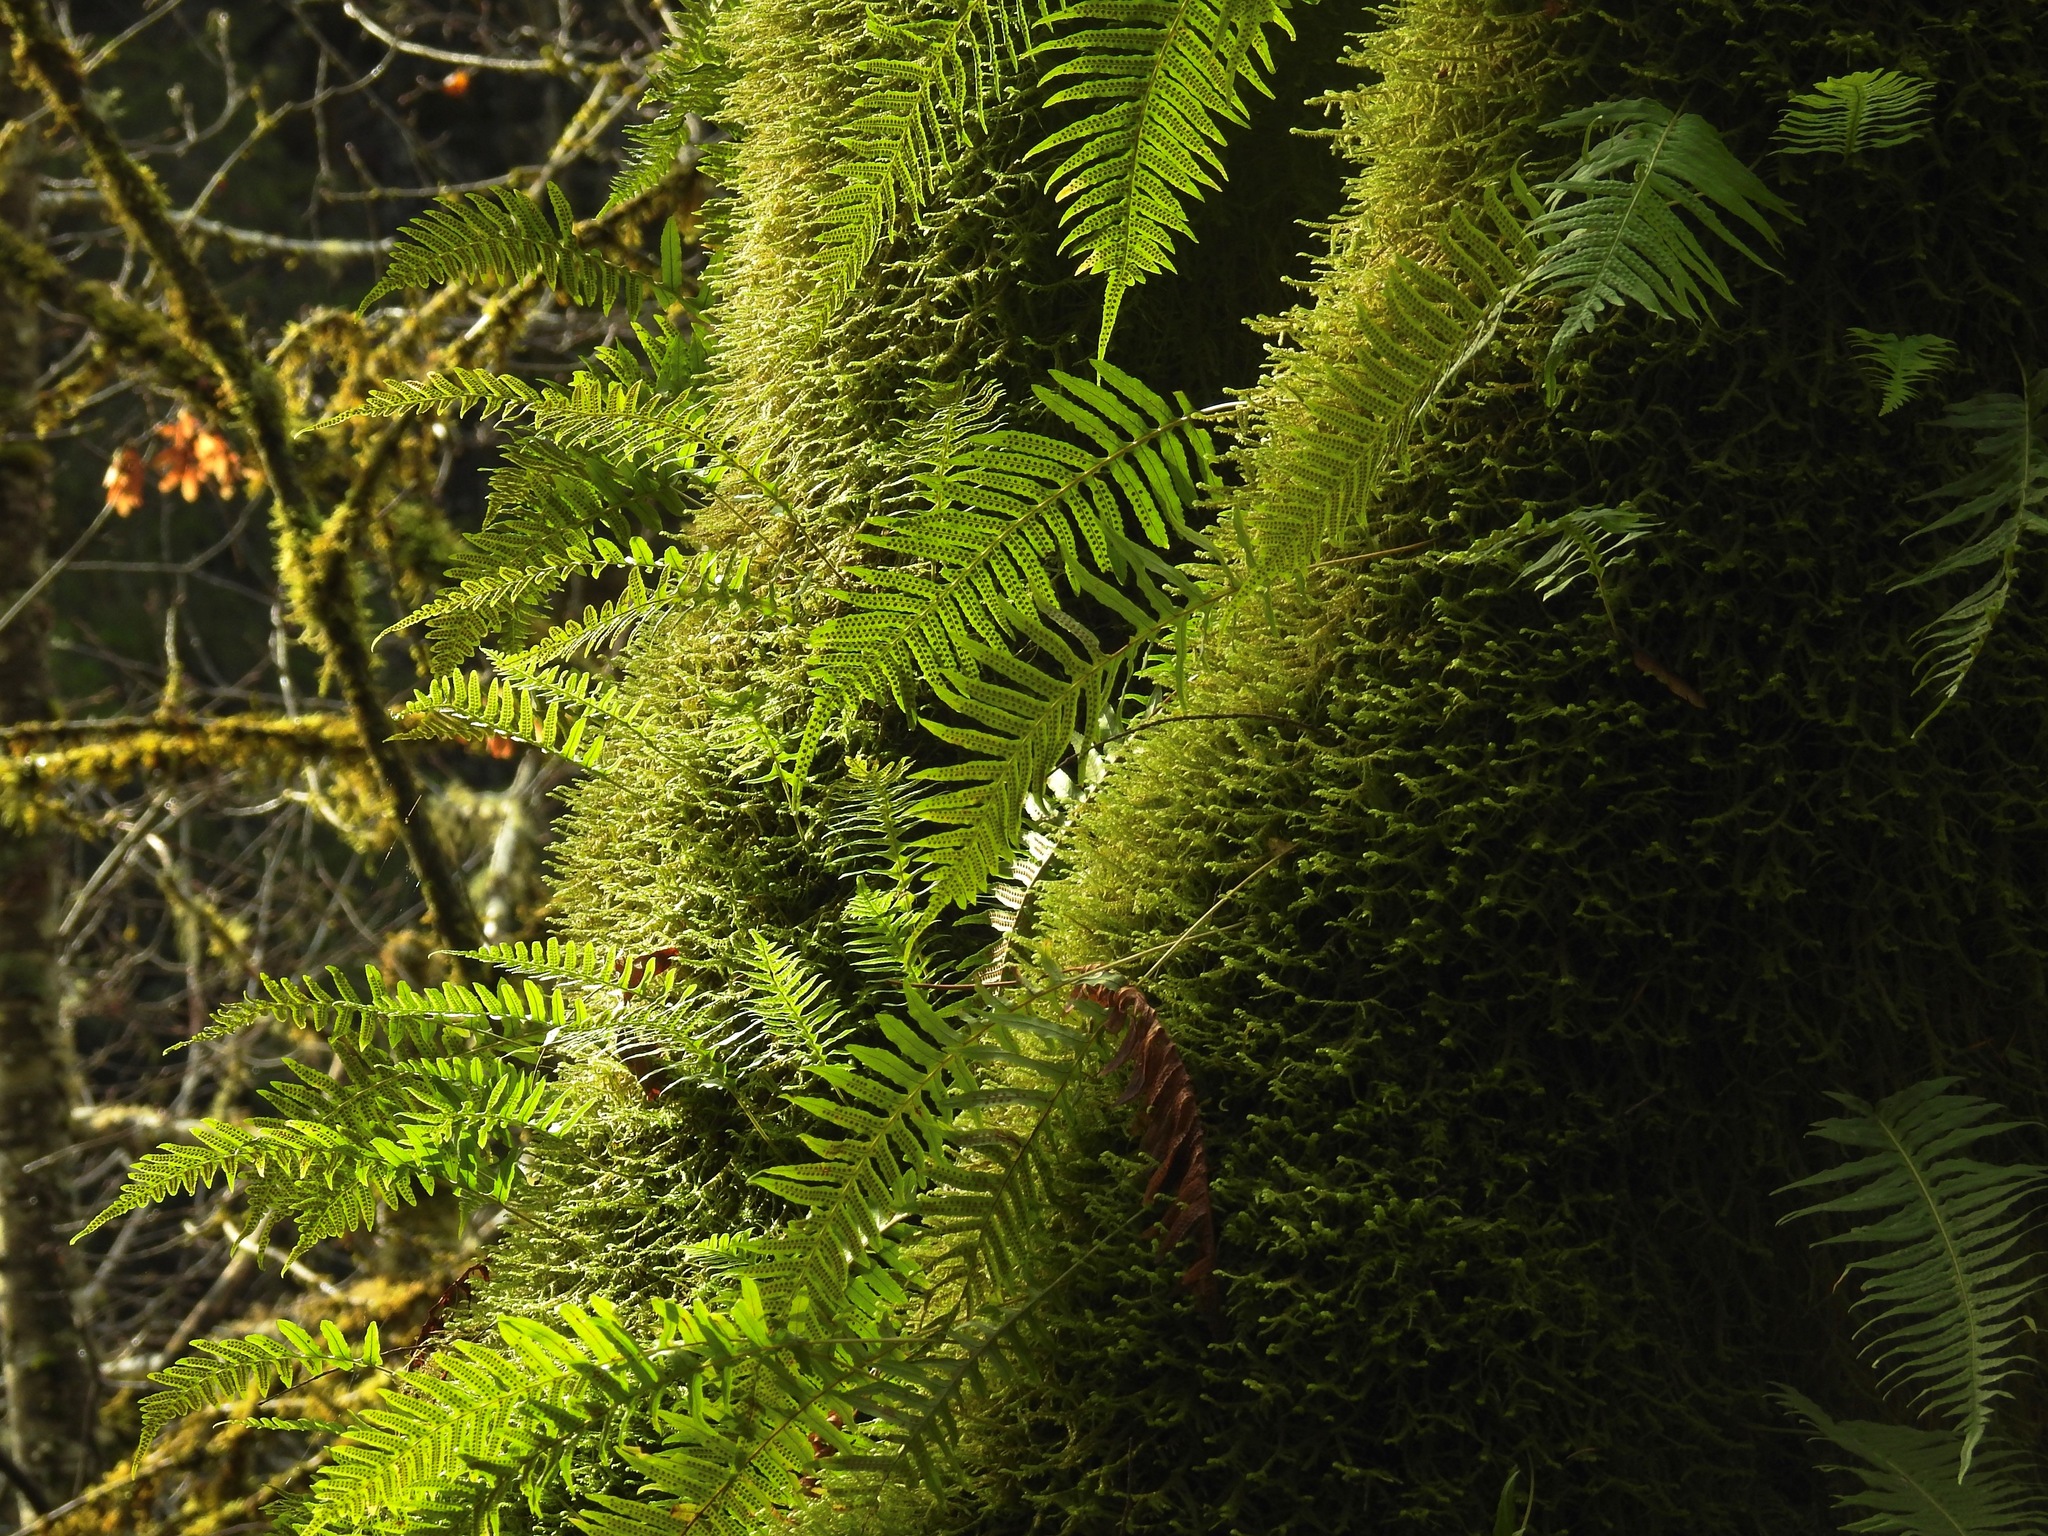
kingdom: Plantae
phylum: Tracheophyta
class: Polypodiopsida
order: Polypodiales
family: Polypodiaceae
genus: Polypodium
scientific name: Polypodium glycyrrhiza
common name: Licorice fern
